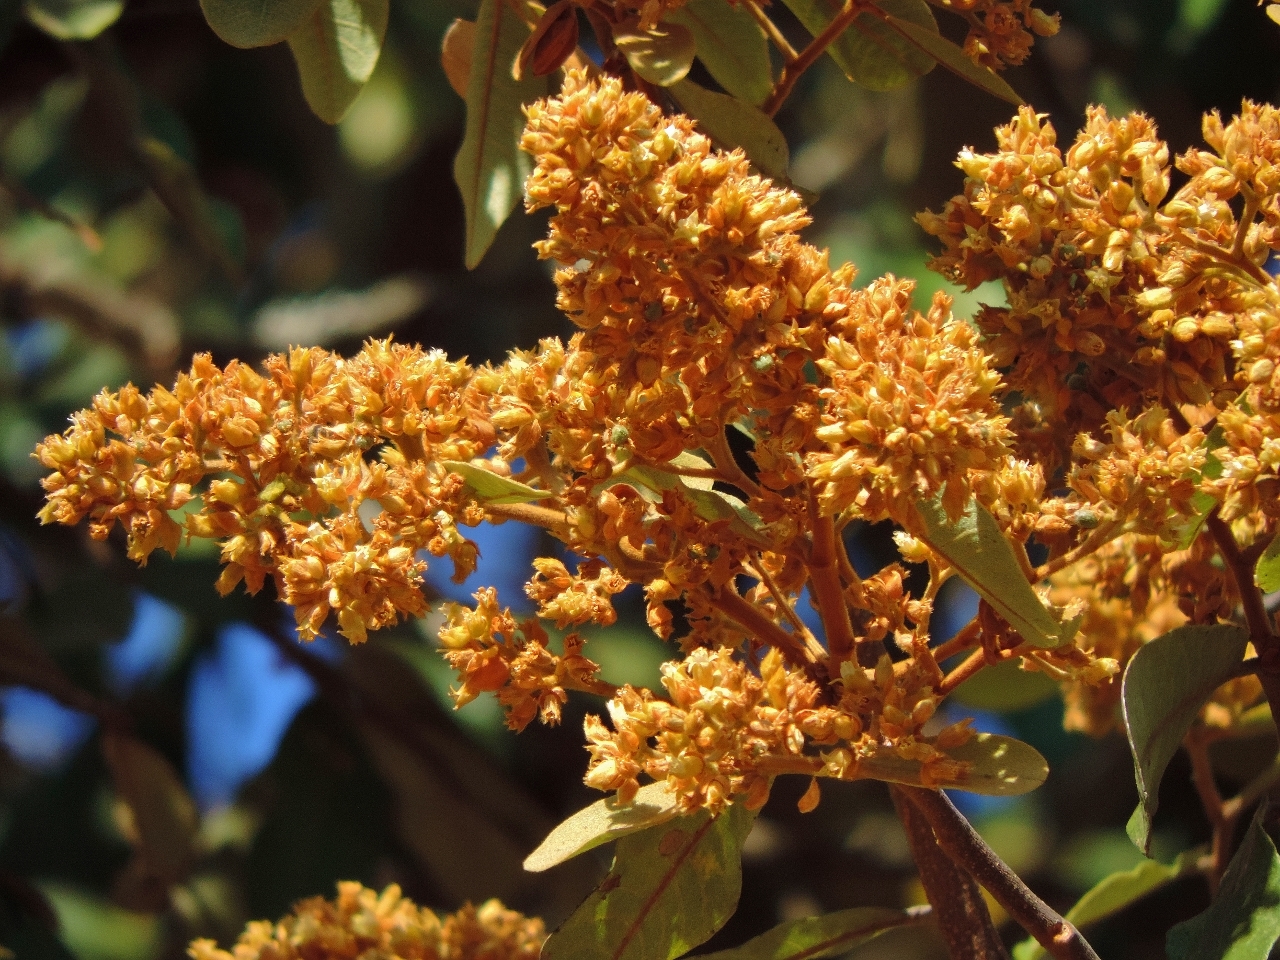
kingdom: Plantae
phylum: Tracheophyta
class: Magnoliopsida
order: Malpighiales
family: Chrysobalanaceae
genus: Parinari
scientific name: Parinari curatellifolia
